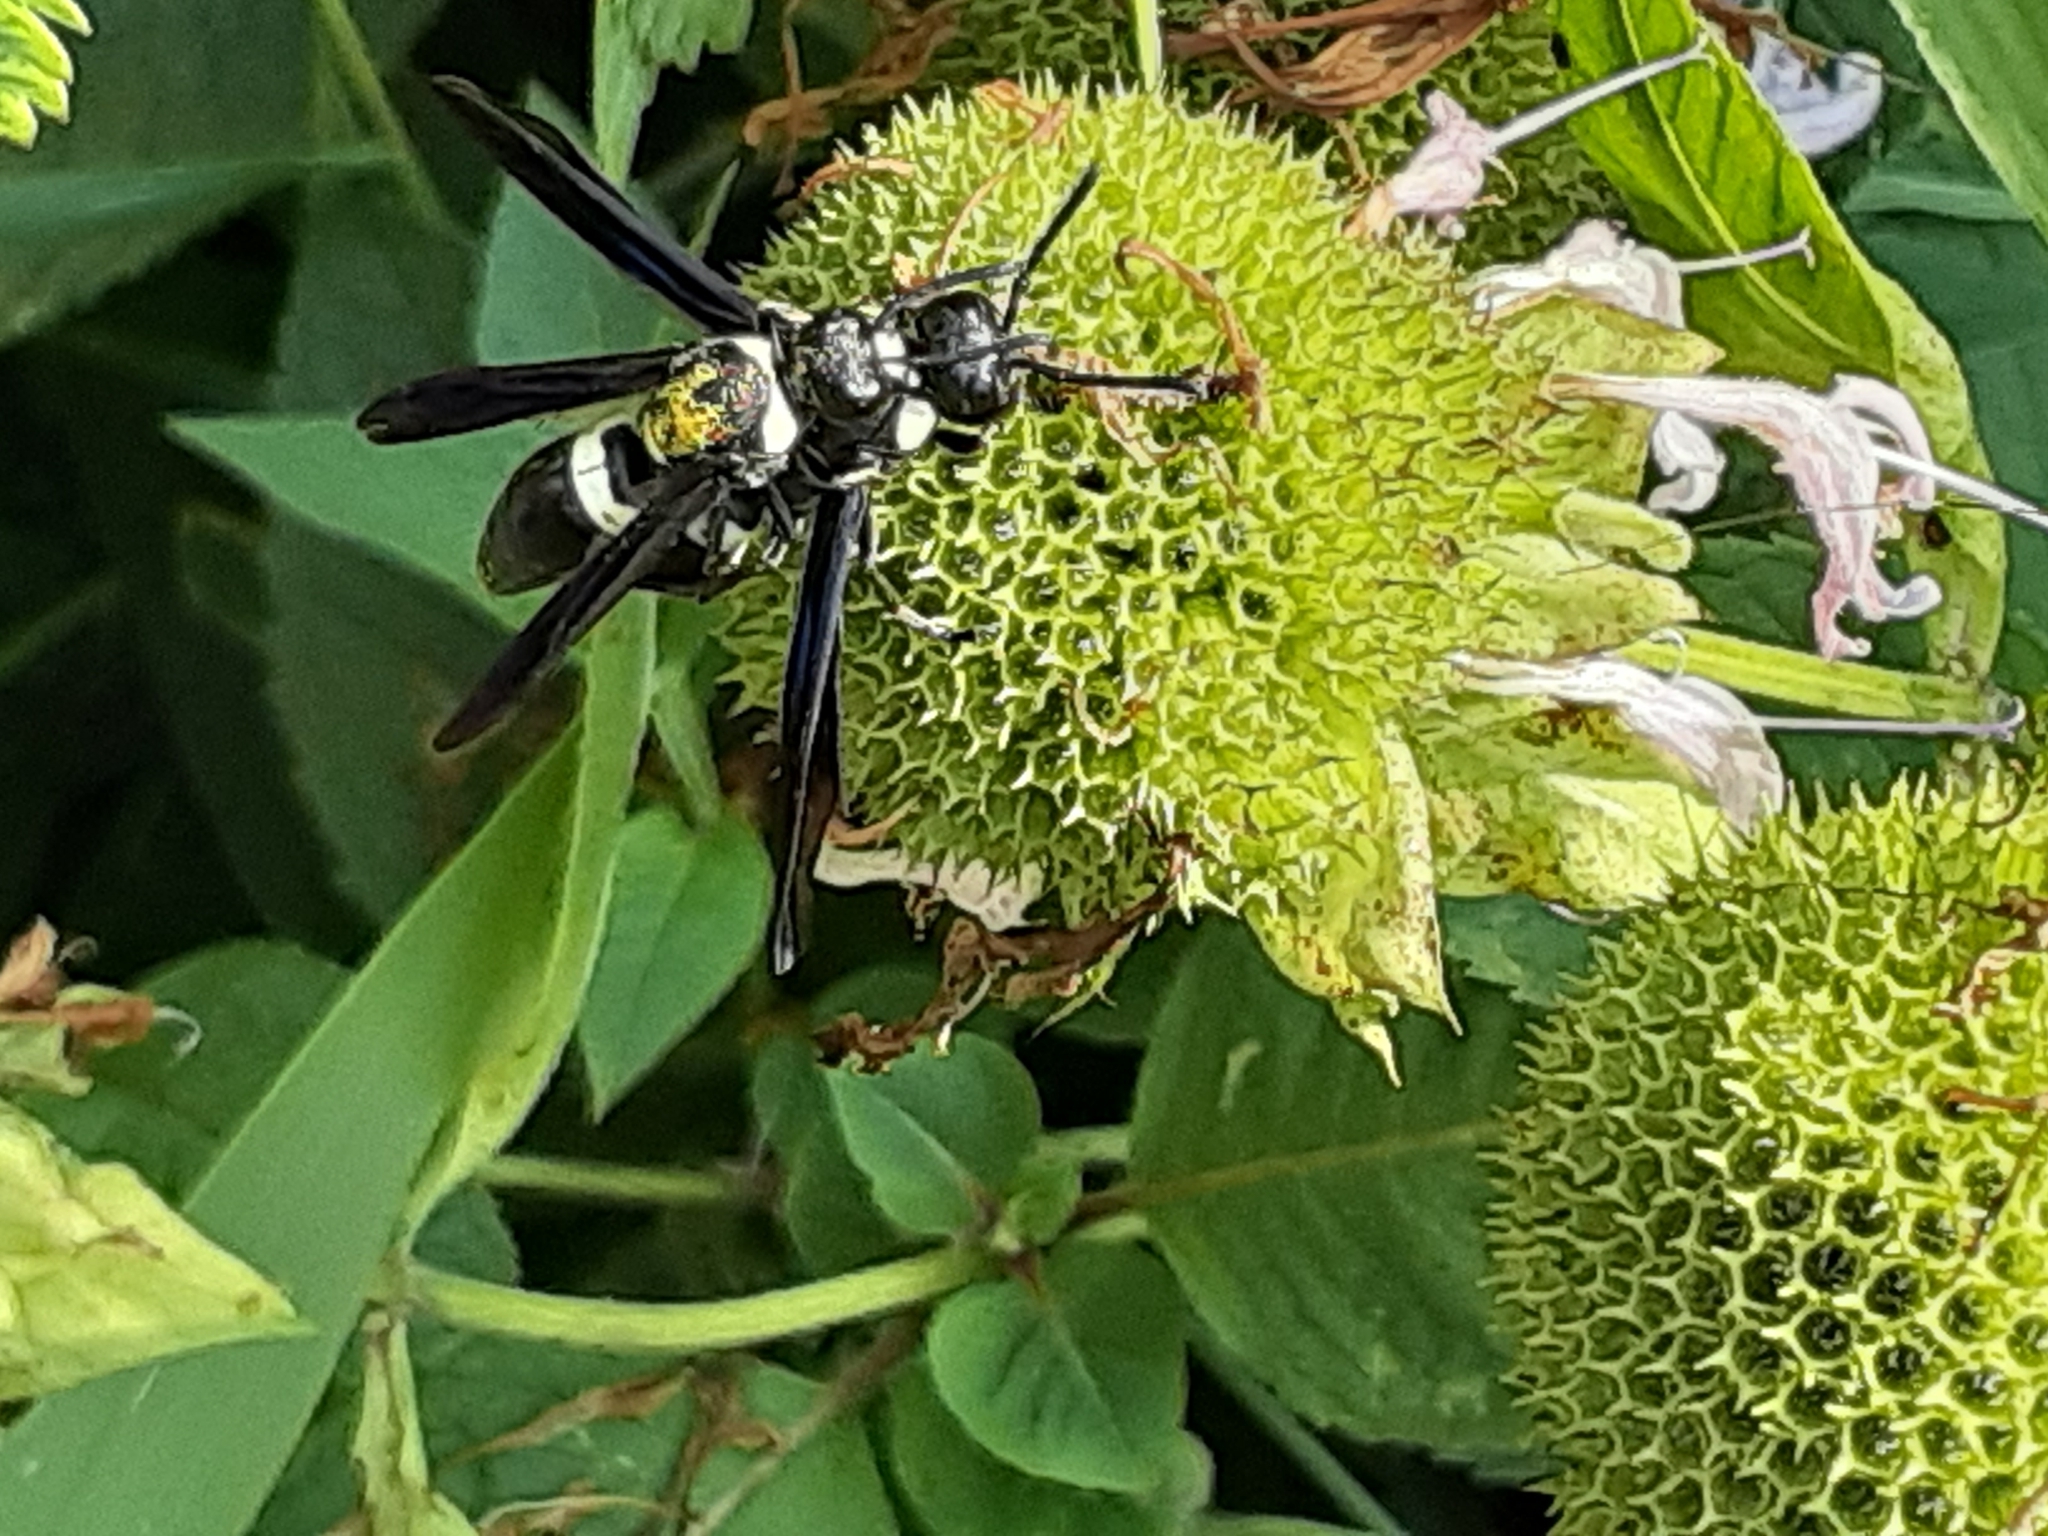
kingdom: Animalia
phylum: Arthropoda
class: Insecta
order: Hymenoptera
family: Eumenidae
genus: Monobia
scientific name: Monobia quadridens
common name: Four-toothed mason wasp
